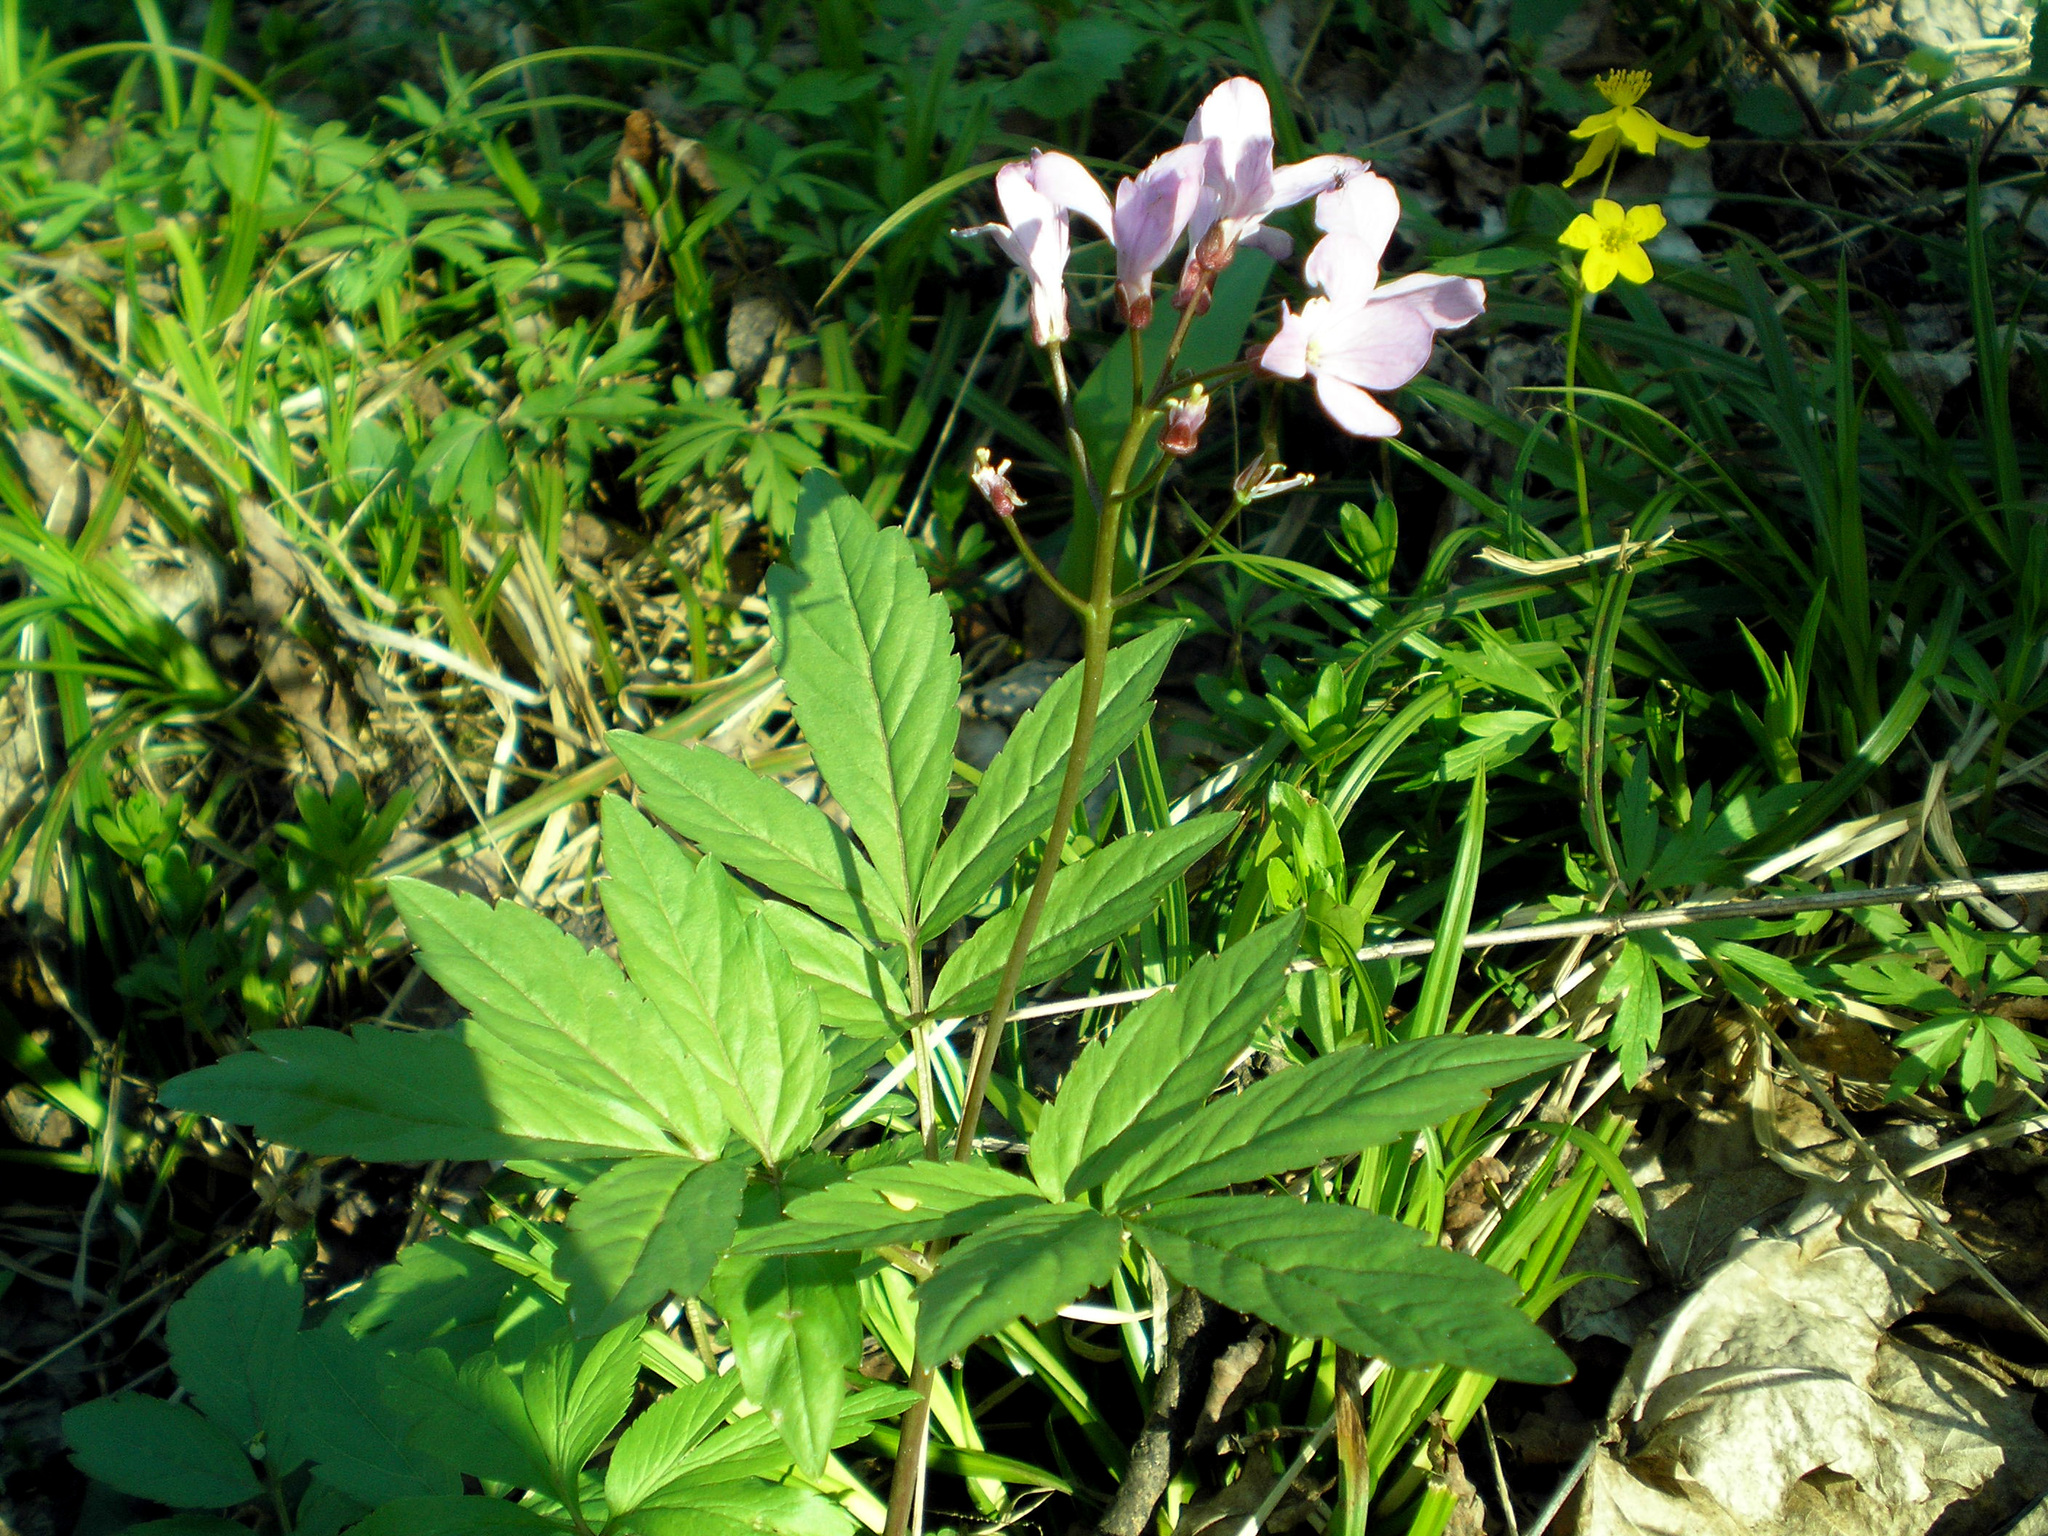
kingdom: Plantae
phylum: Tracheophyta
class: Magnoliopsida
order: Brassicales
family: Brassicaceae
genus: Cardamine
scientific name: Cardamine quinquefolia
